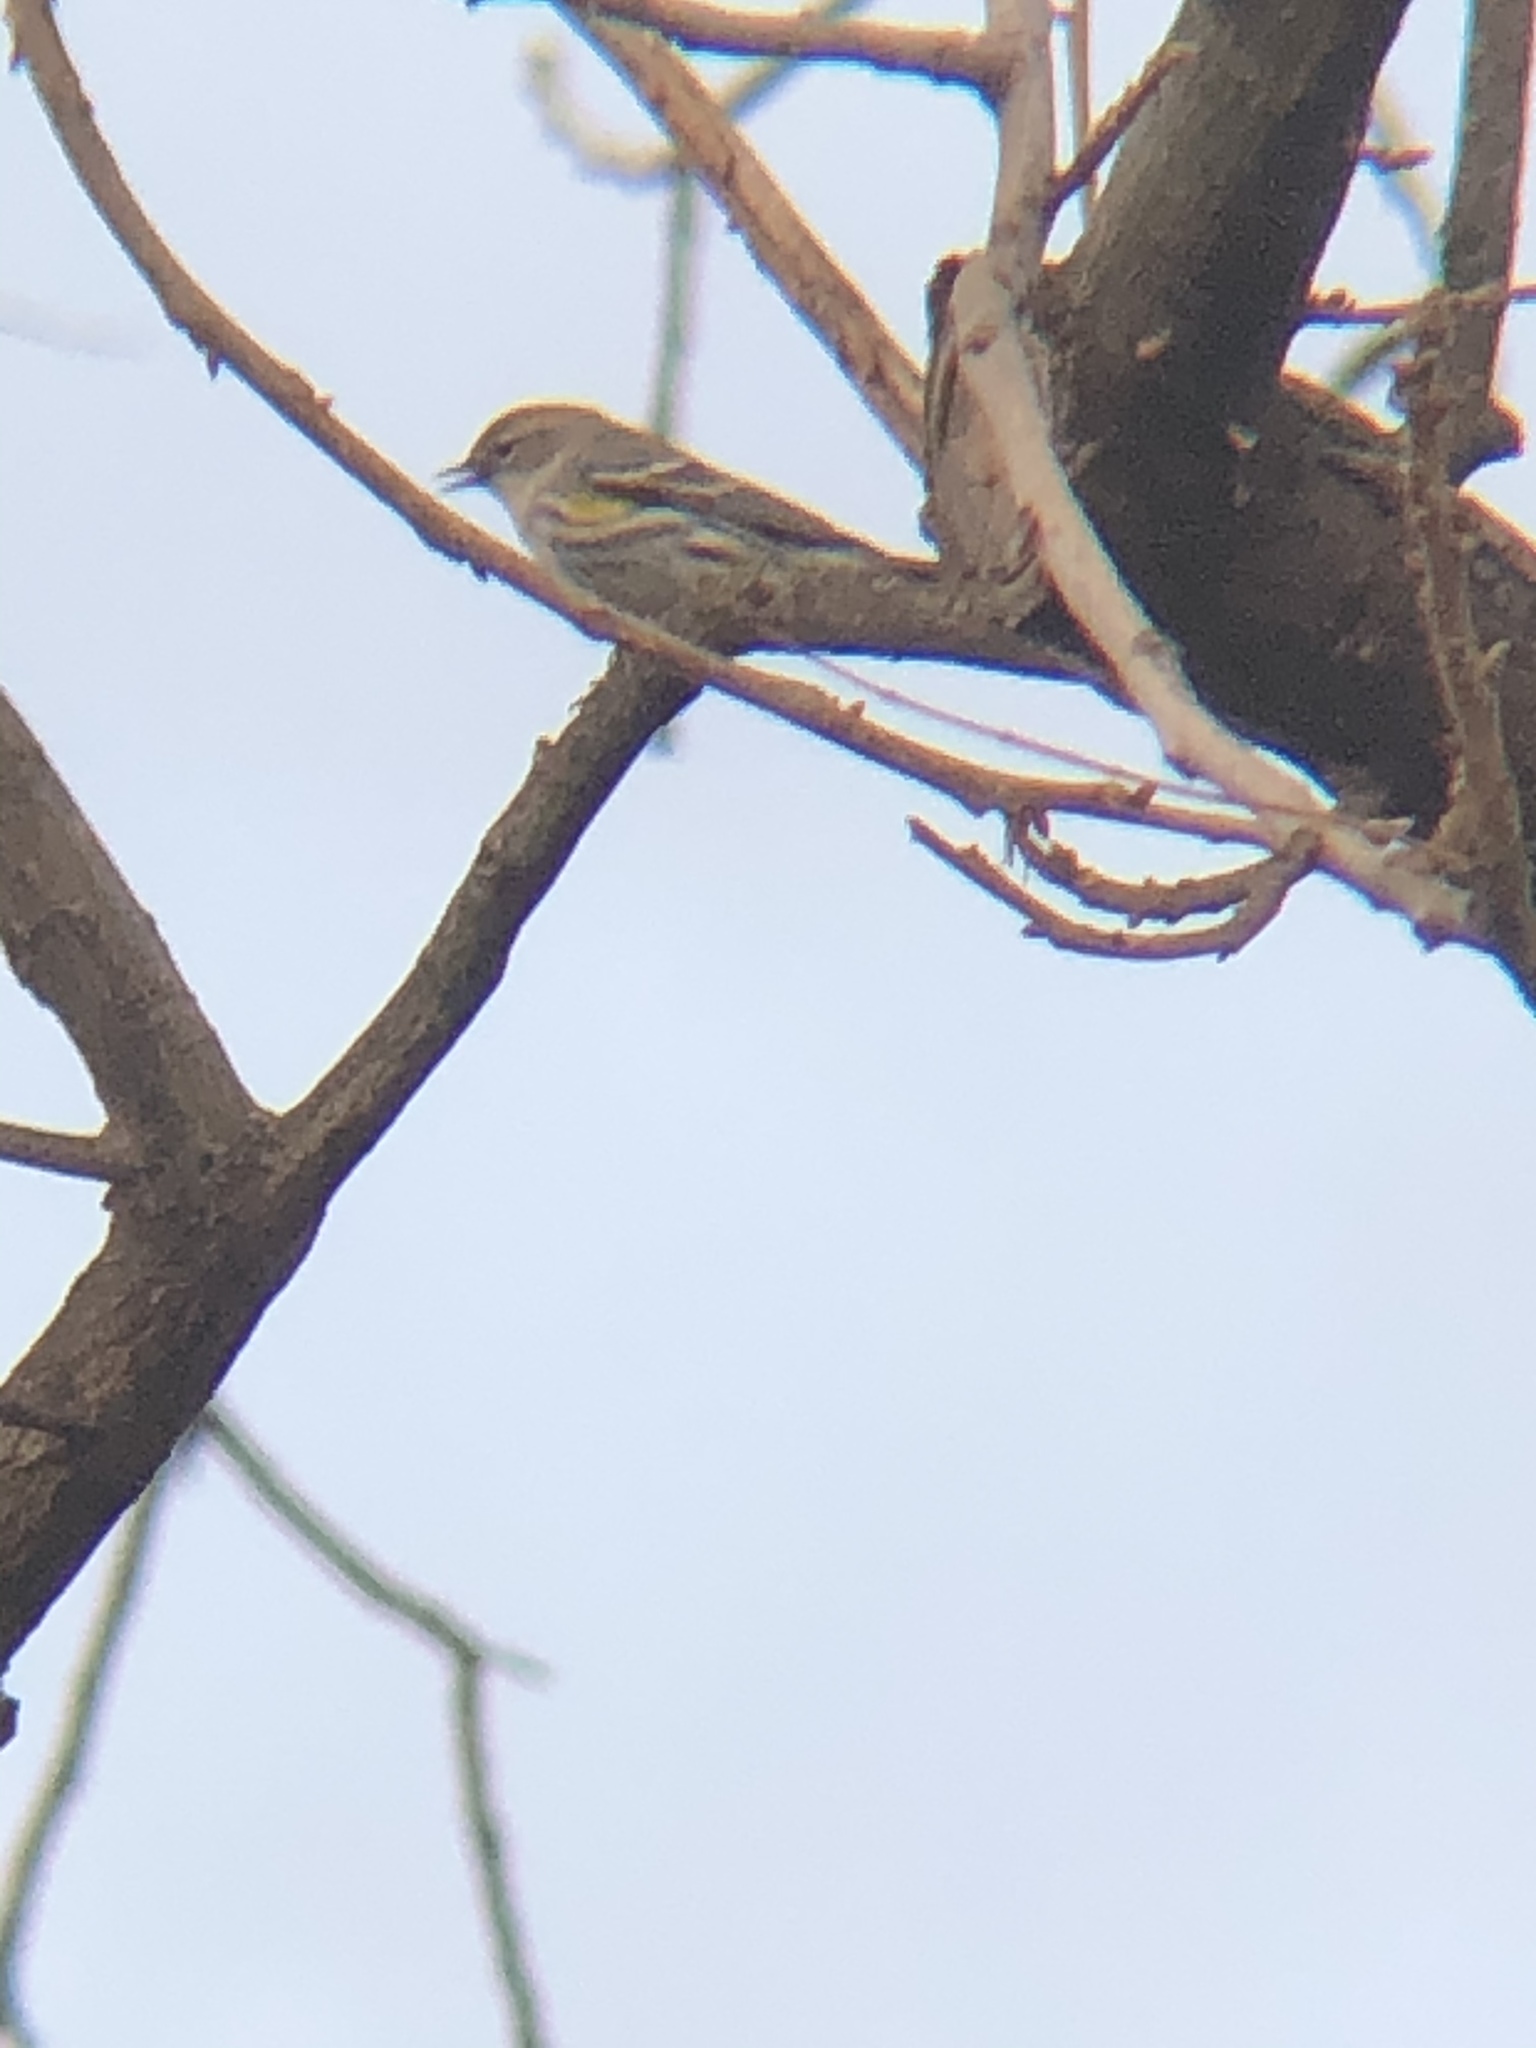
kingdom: Animalia
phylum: Chordata
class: Aves
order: Passeriformes
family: Parulidae
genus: Setophaga
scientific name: Setophaga coronata
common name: Myrtle warbler
